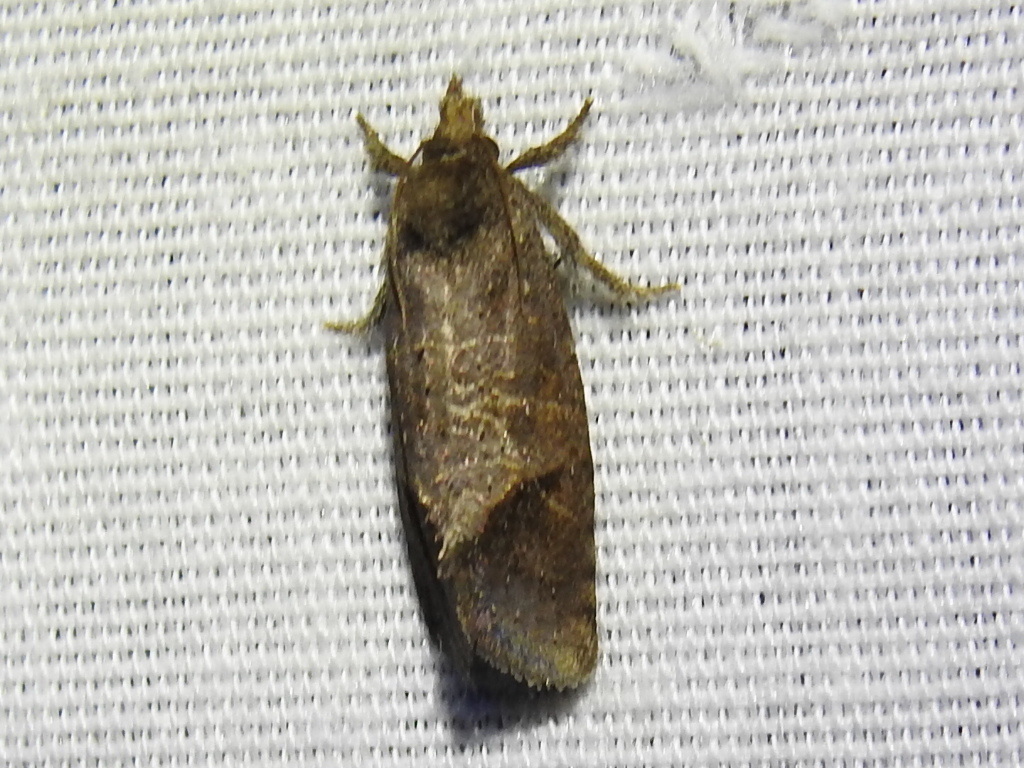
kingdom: Animalia
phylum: Arthropoda
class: Insecta
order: Lepidoptera
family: Tineidae
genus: Acrolophus
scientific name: Acrolophus texanella
